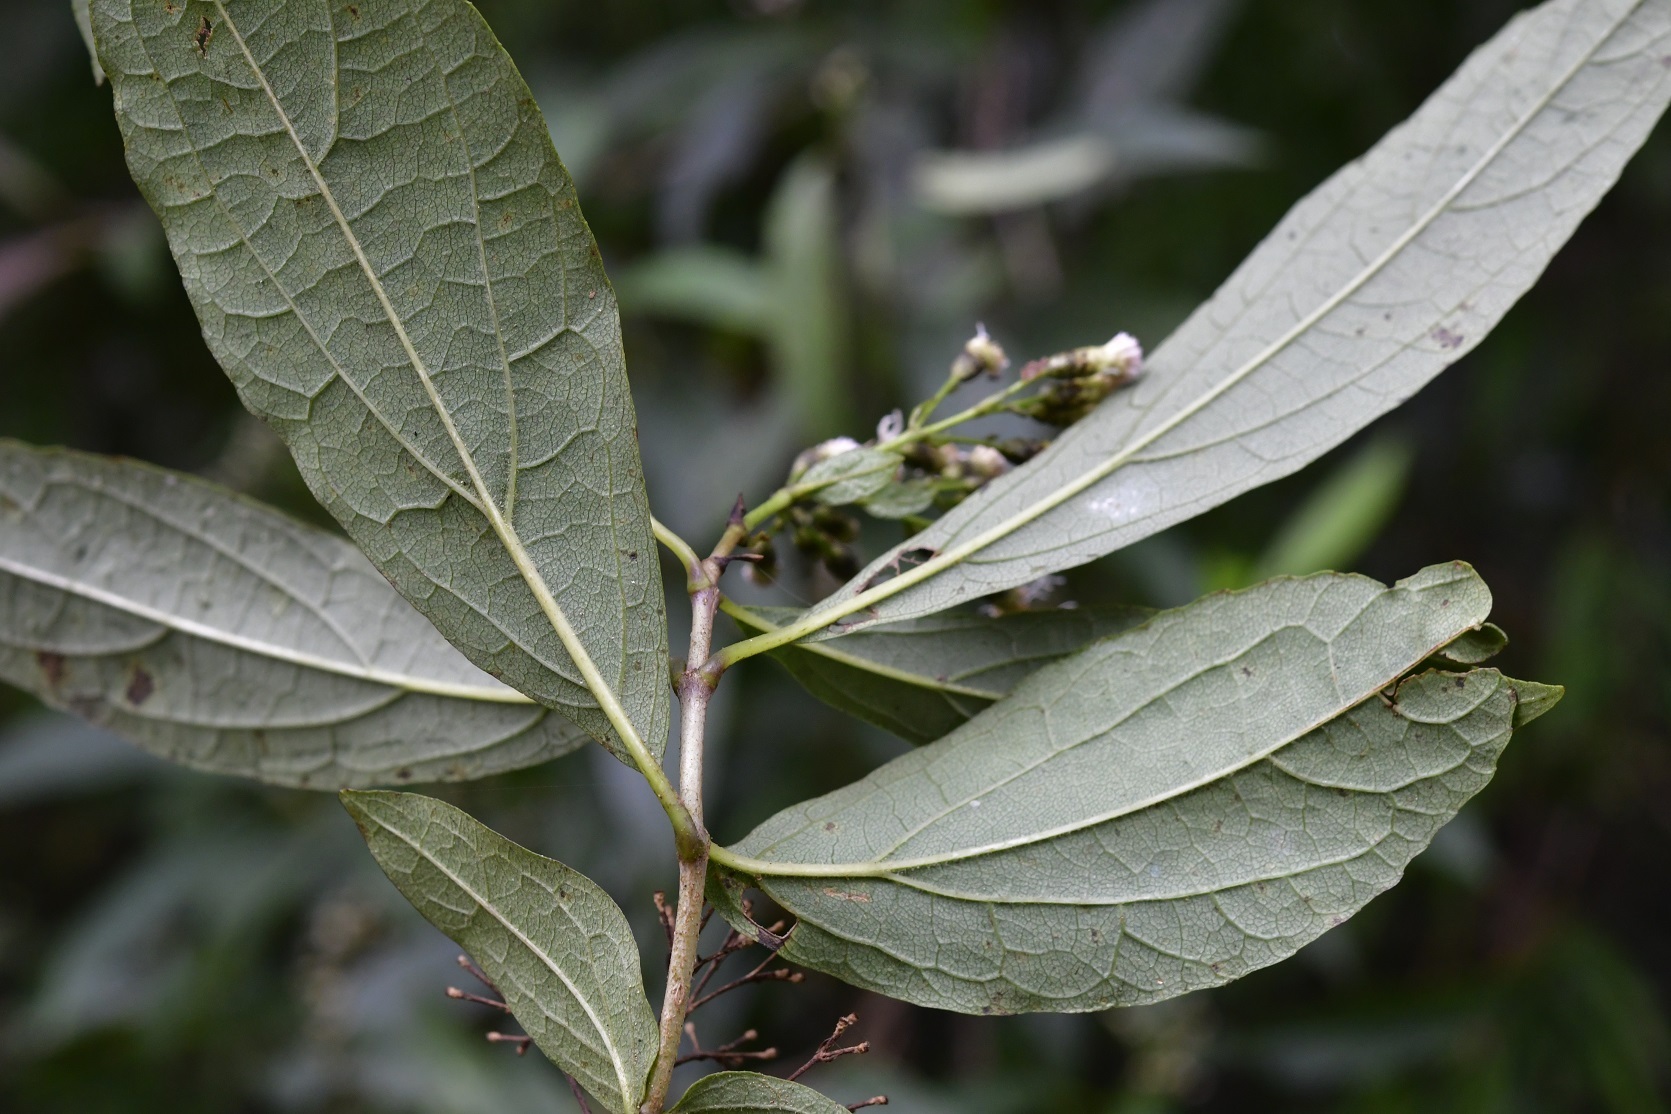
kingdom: Plantae
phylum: Tracheophyta
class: Magnoliopsida
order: Asterales
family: Asteraceae
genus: Chromolaena
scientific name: Chromolaena glaberrima
